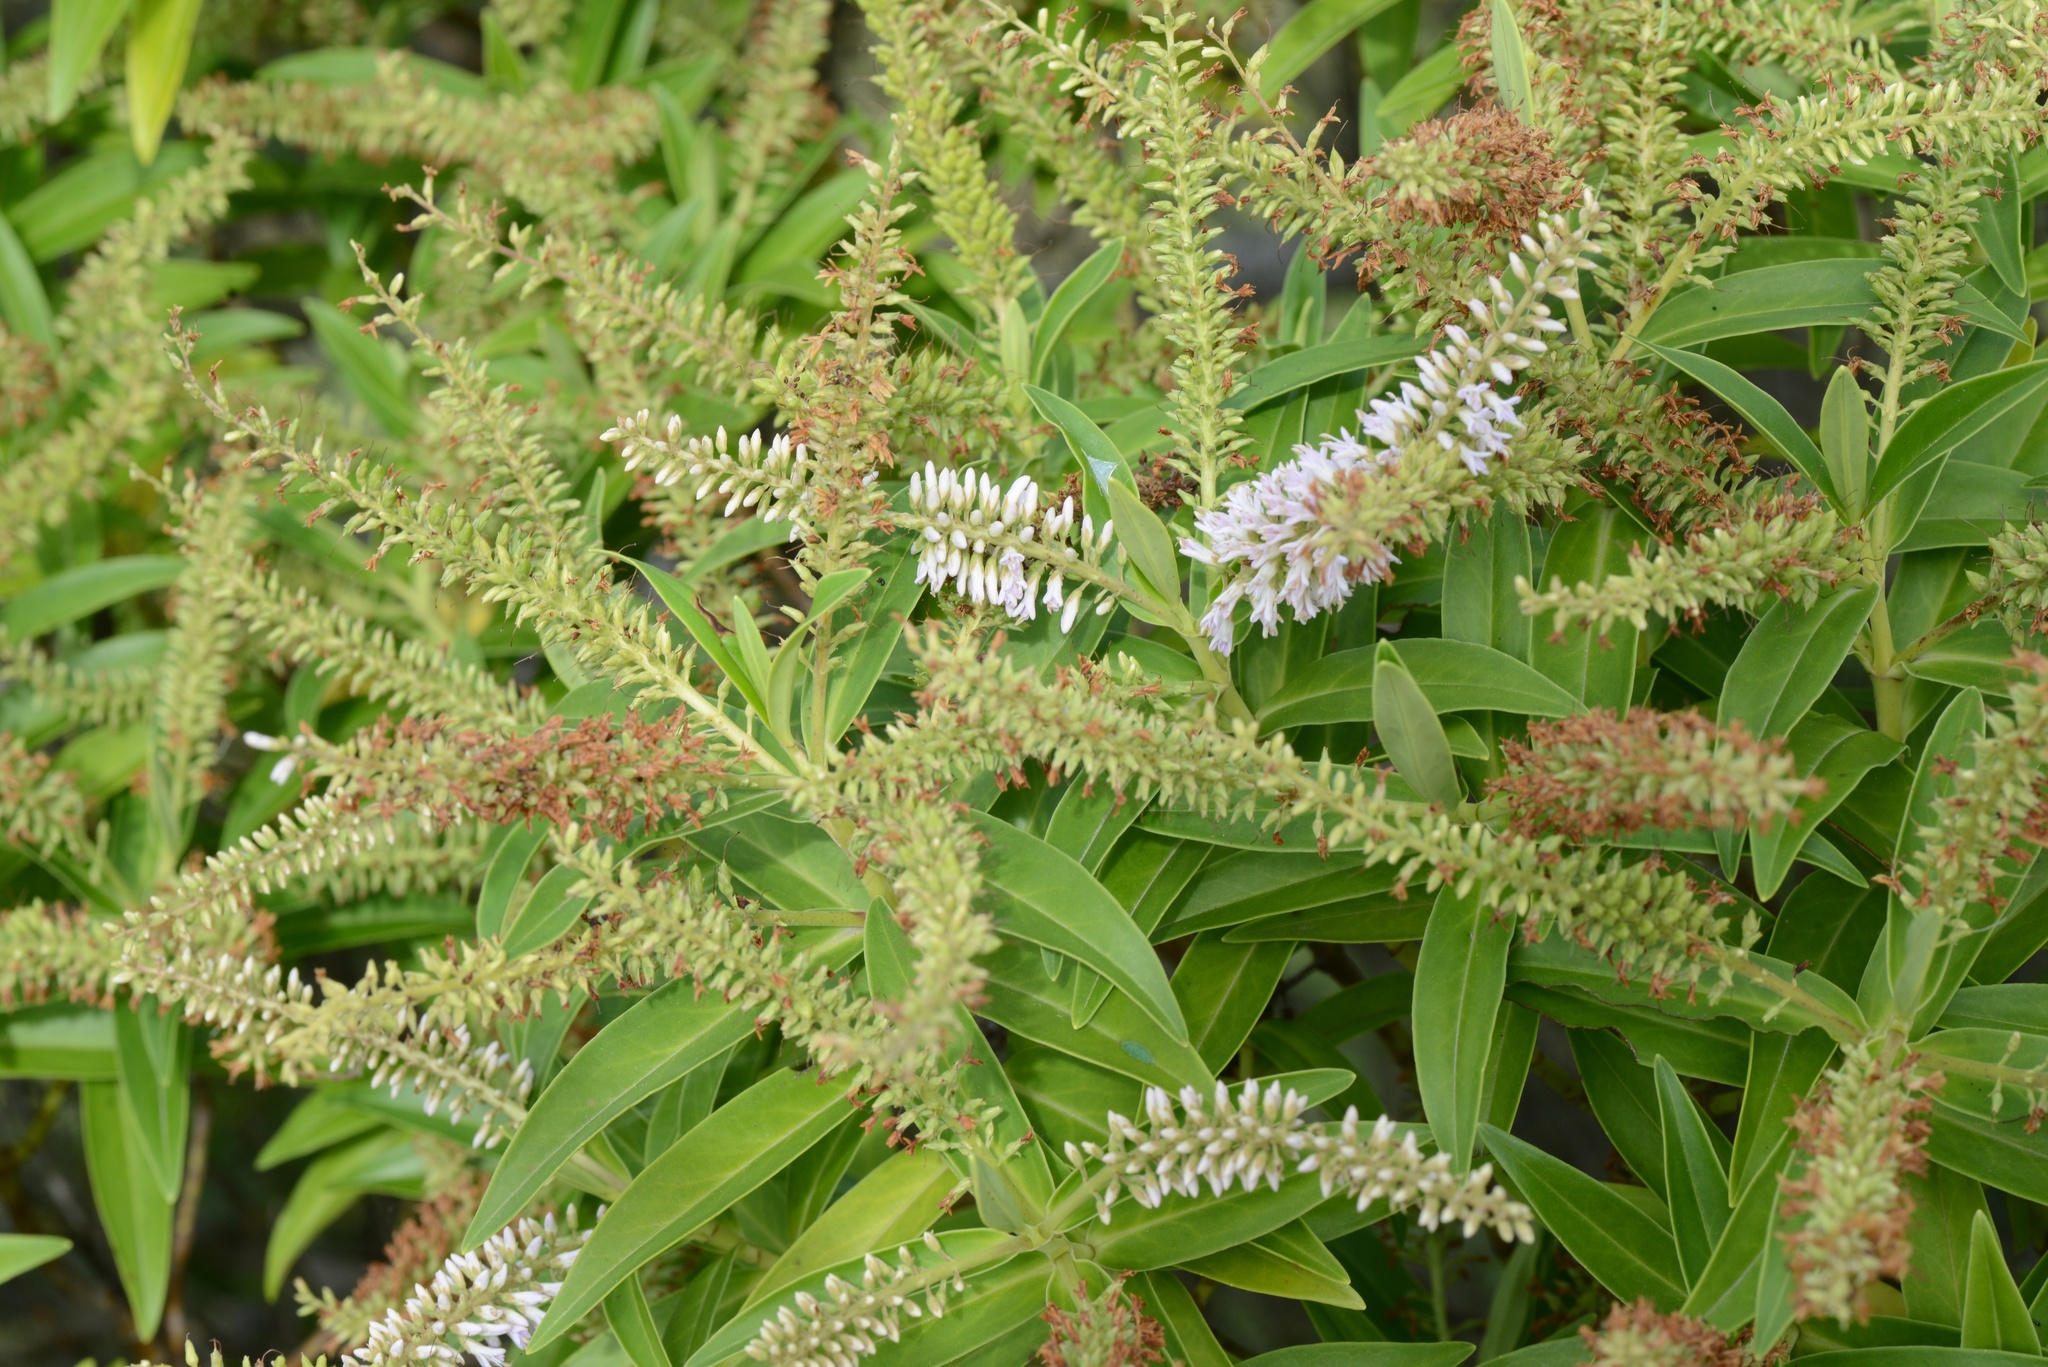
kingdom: Plantae
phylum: Tracheophyta
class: Magnoliopsida
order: Lamiales
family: Plantaginaceae
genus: Veronica
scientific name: Veronica salicifolia
